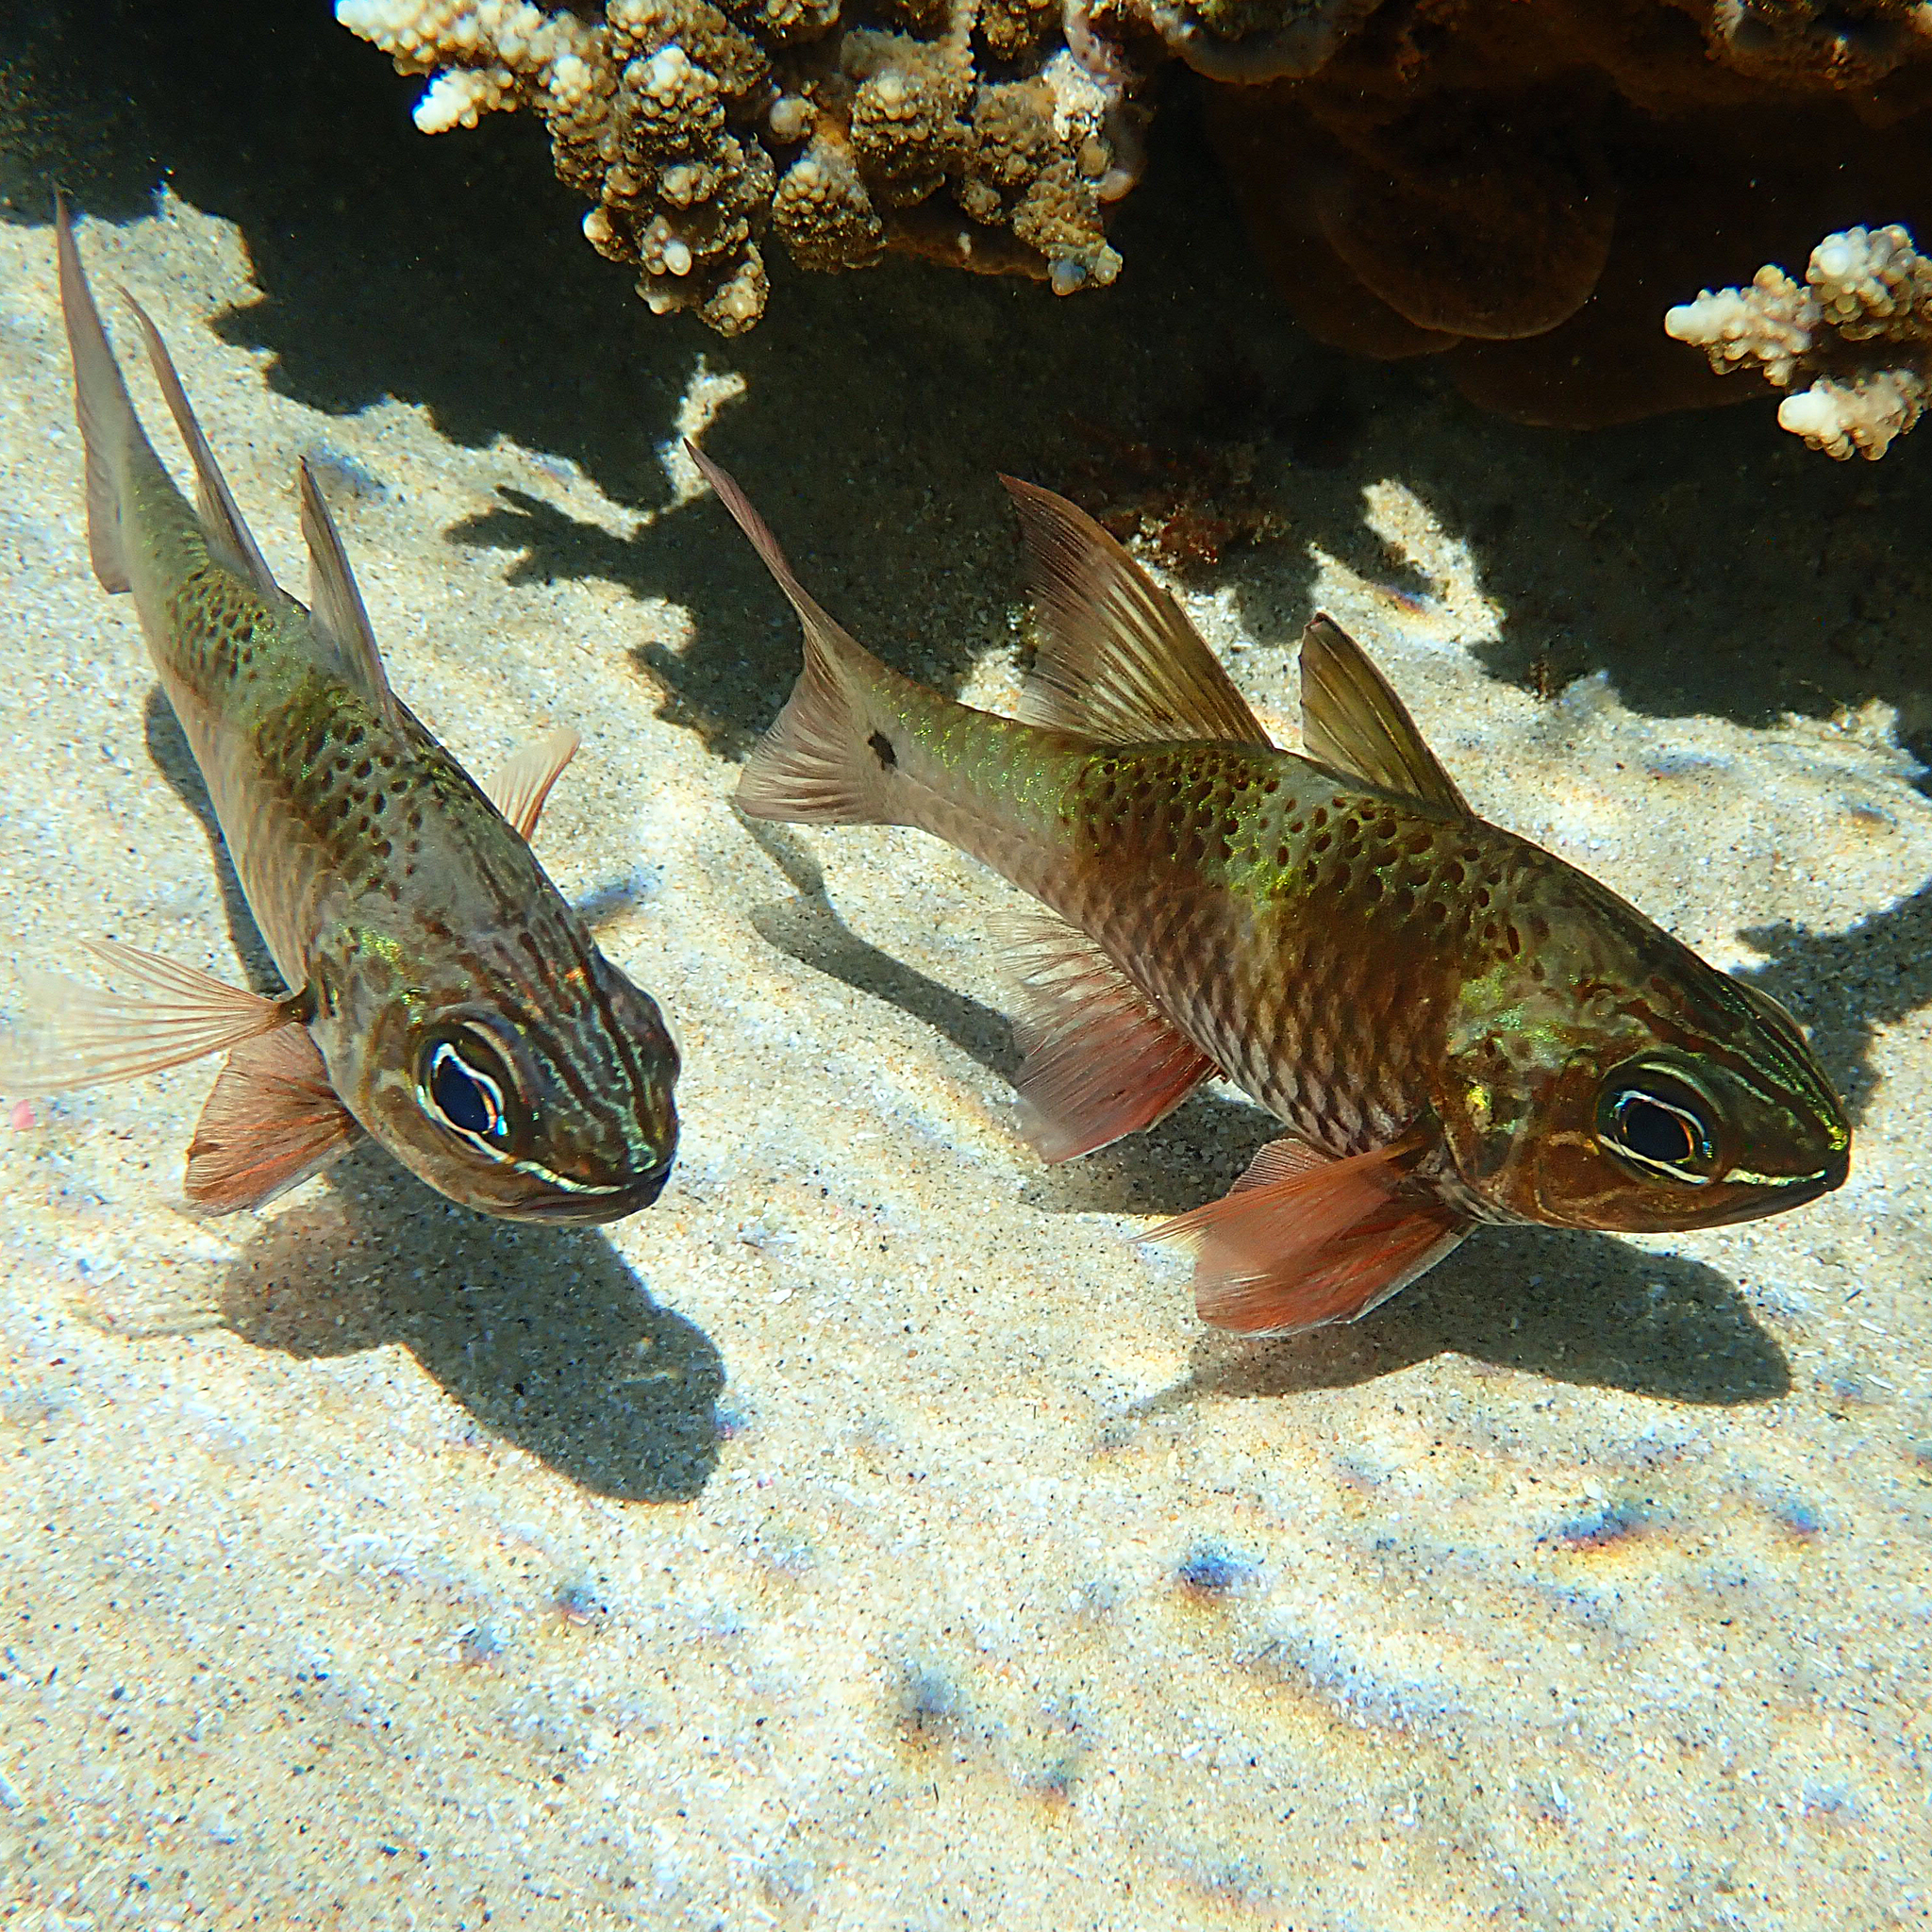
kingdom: Animalia
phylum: Chordata
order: Perciformes
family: Apogonidae
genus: Ostorhinchus
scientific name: Ostorhinchus norfolcensis
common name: Norfolk cardinalfish
